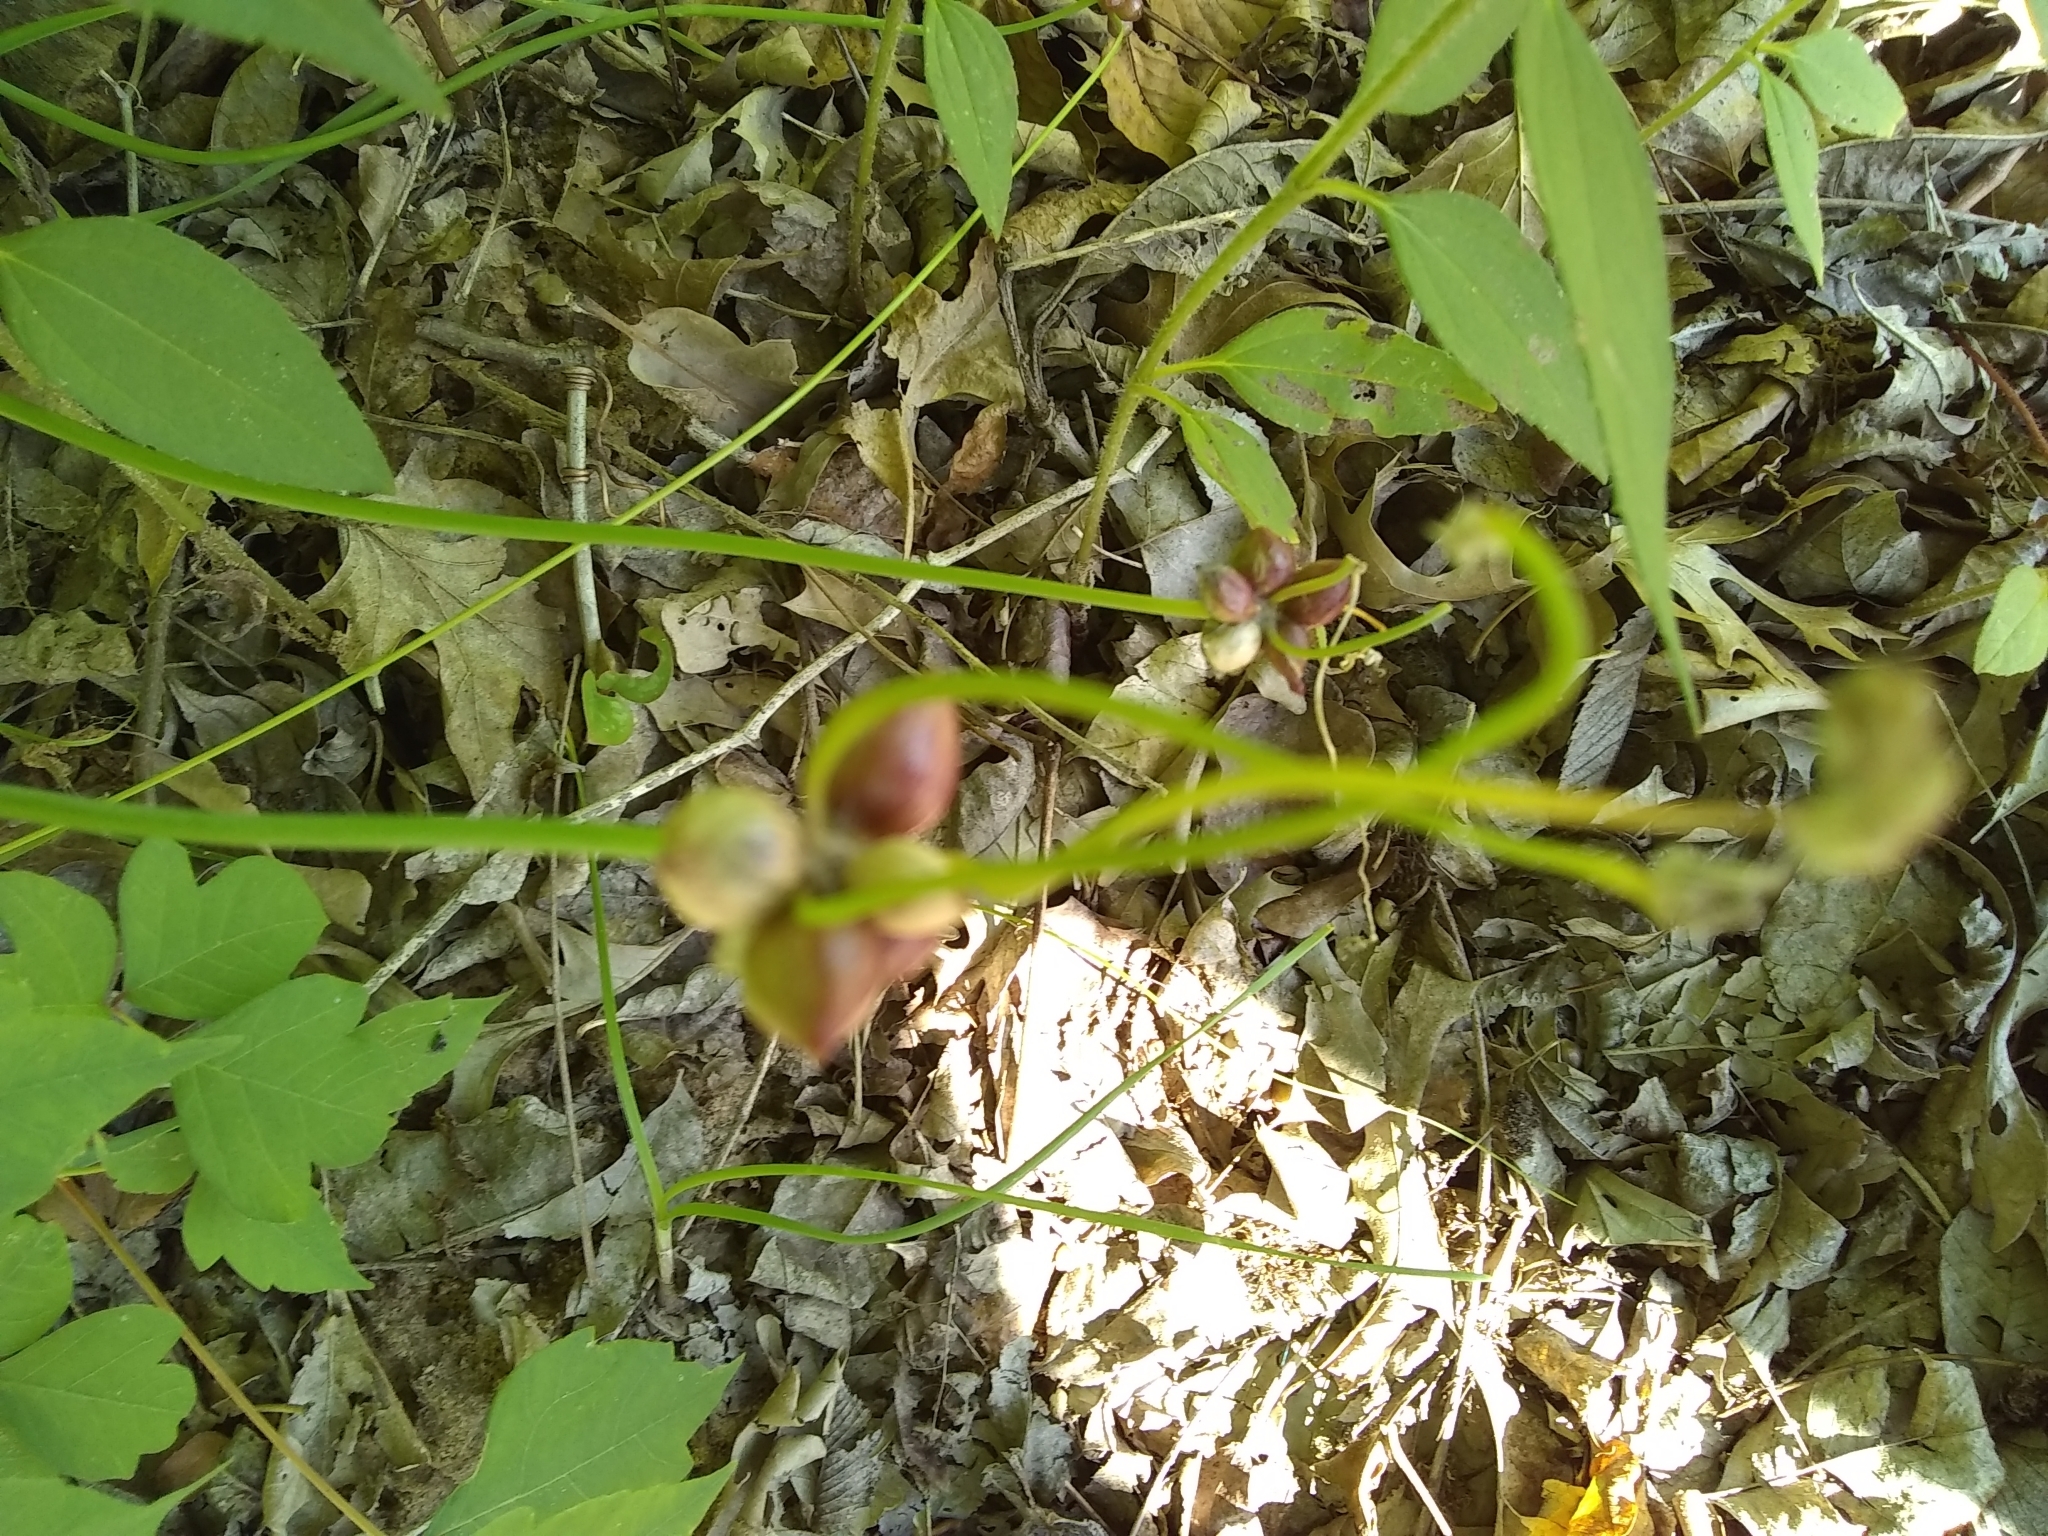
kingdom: Plantae
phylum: Tracheophyta
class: Liliopsida
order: Asparagales
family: Amaryllidaceae
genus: Allium
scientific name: Allium canadense
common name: Meadow garlic
